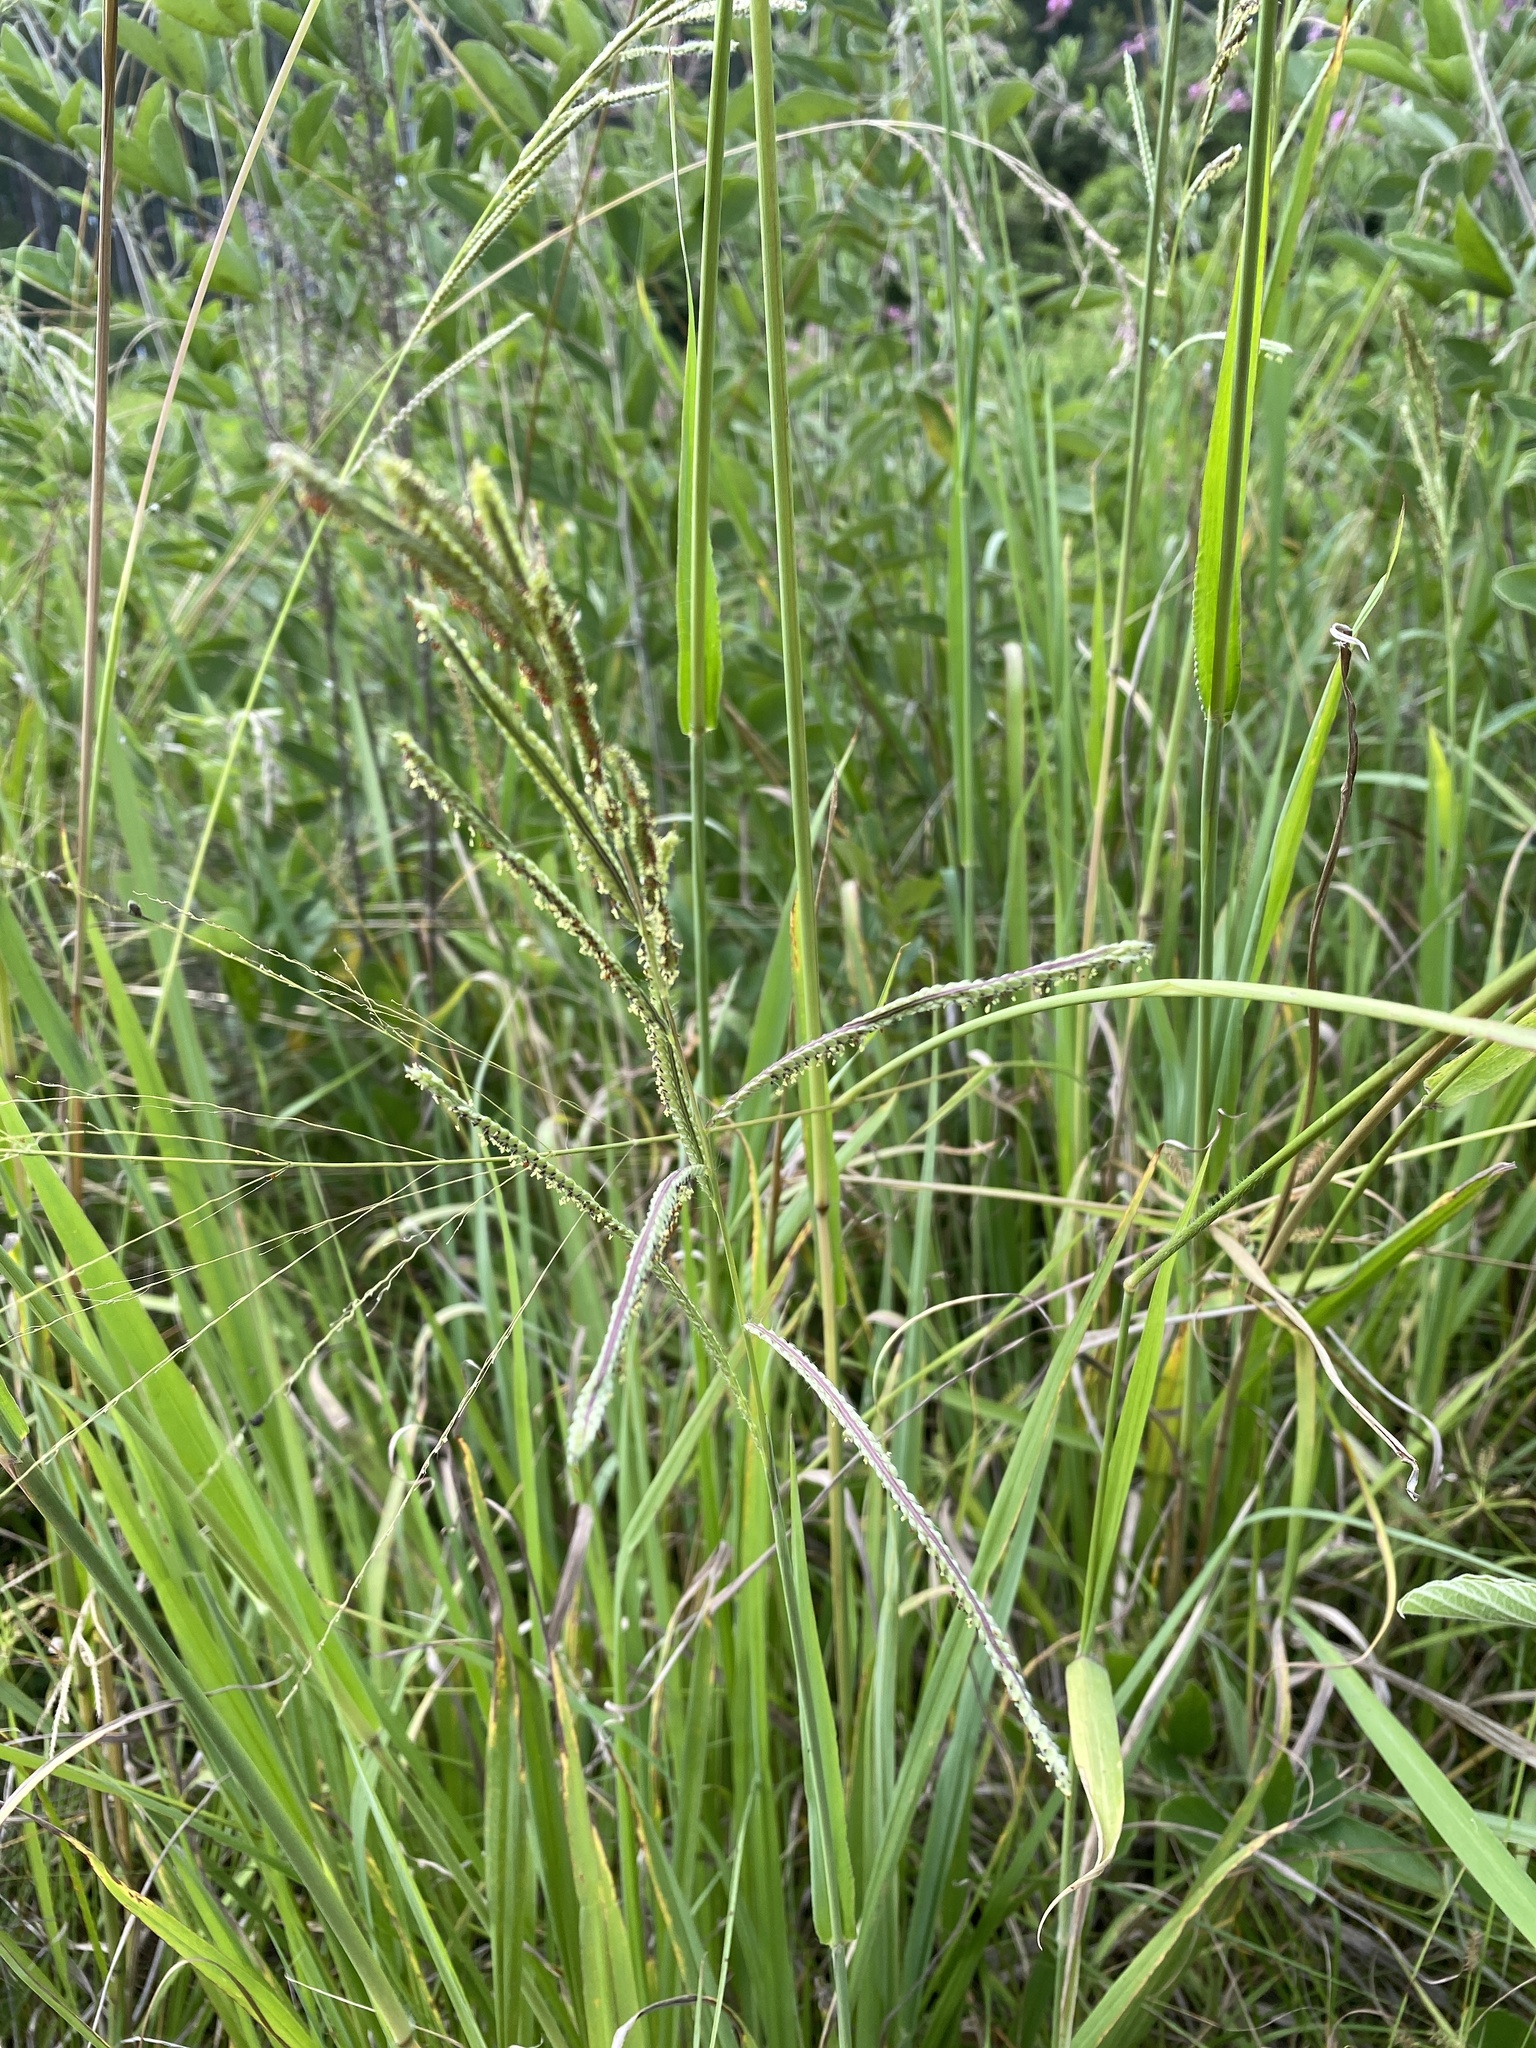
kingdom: Plantae
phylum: Tracheophyta
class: Liliopsida
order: Poales
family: Poaceae
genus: Paspalum
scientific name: Paspalum urvillei
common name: Vasey's grass
